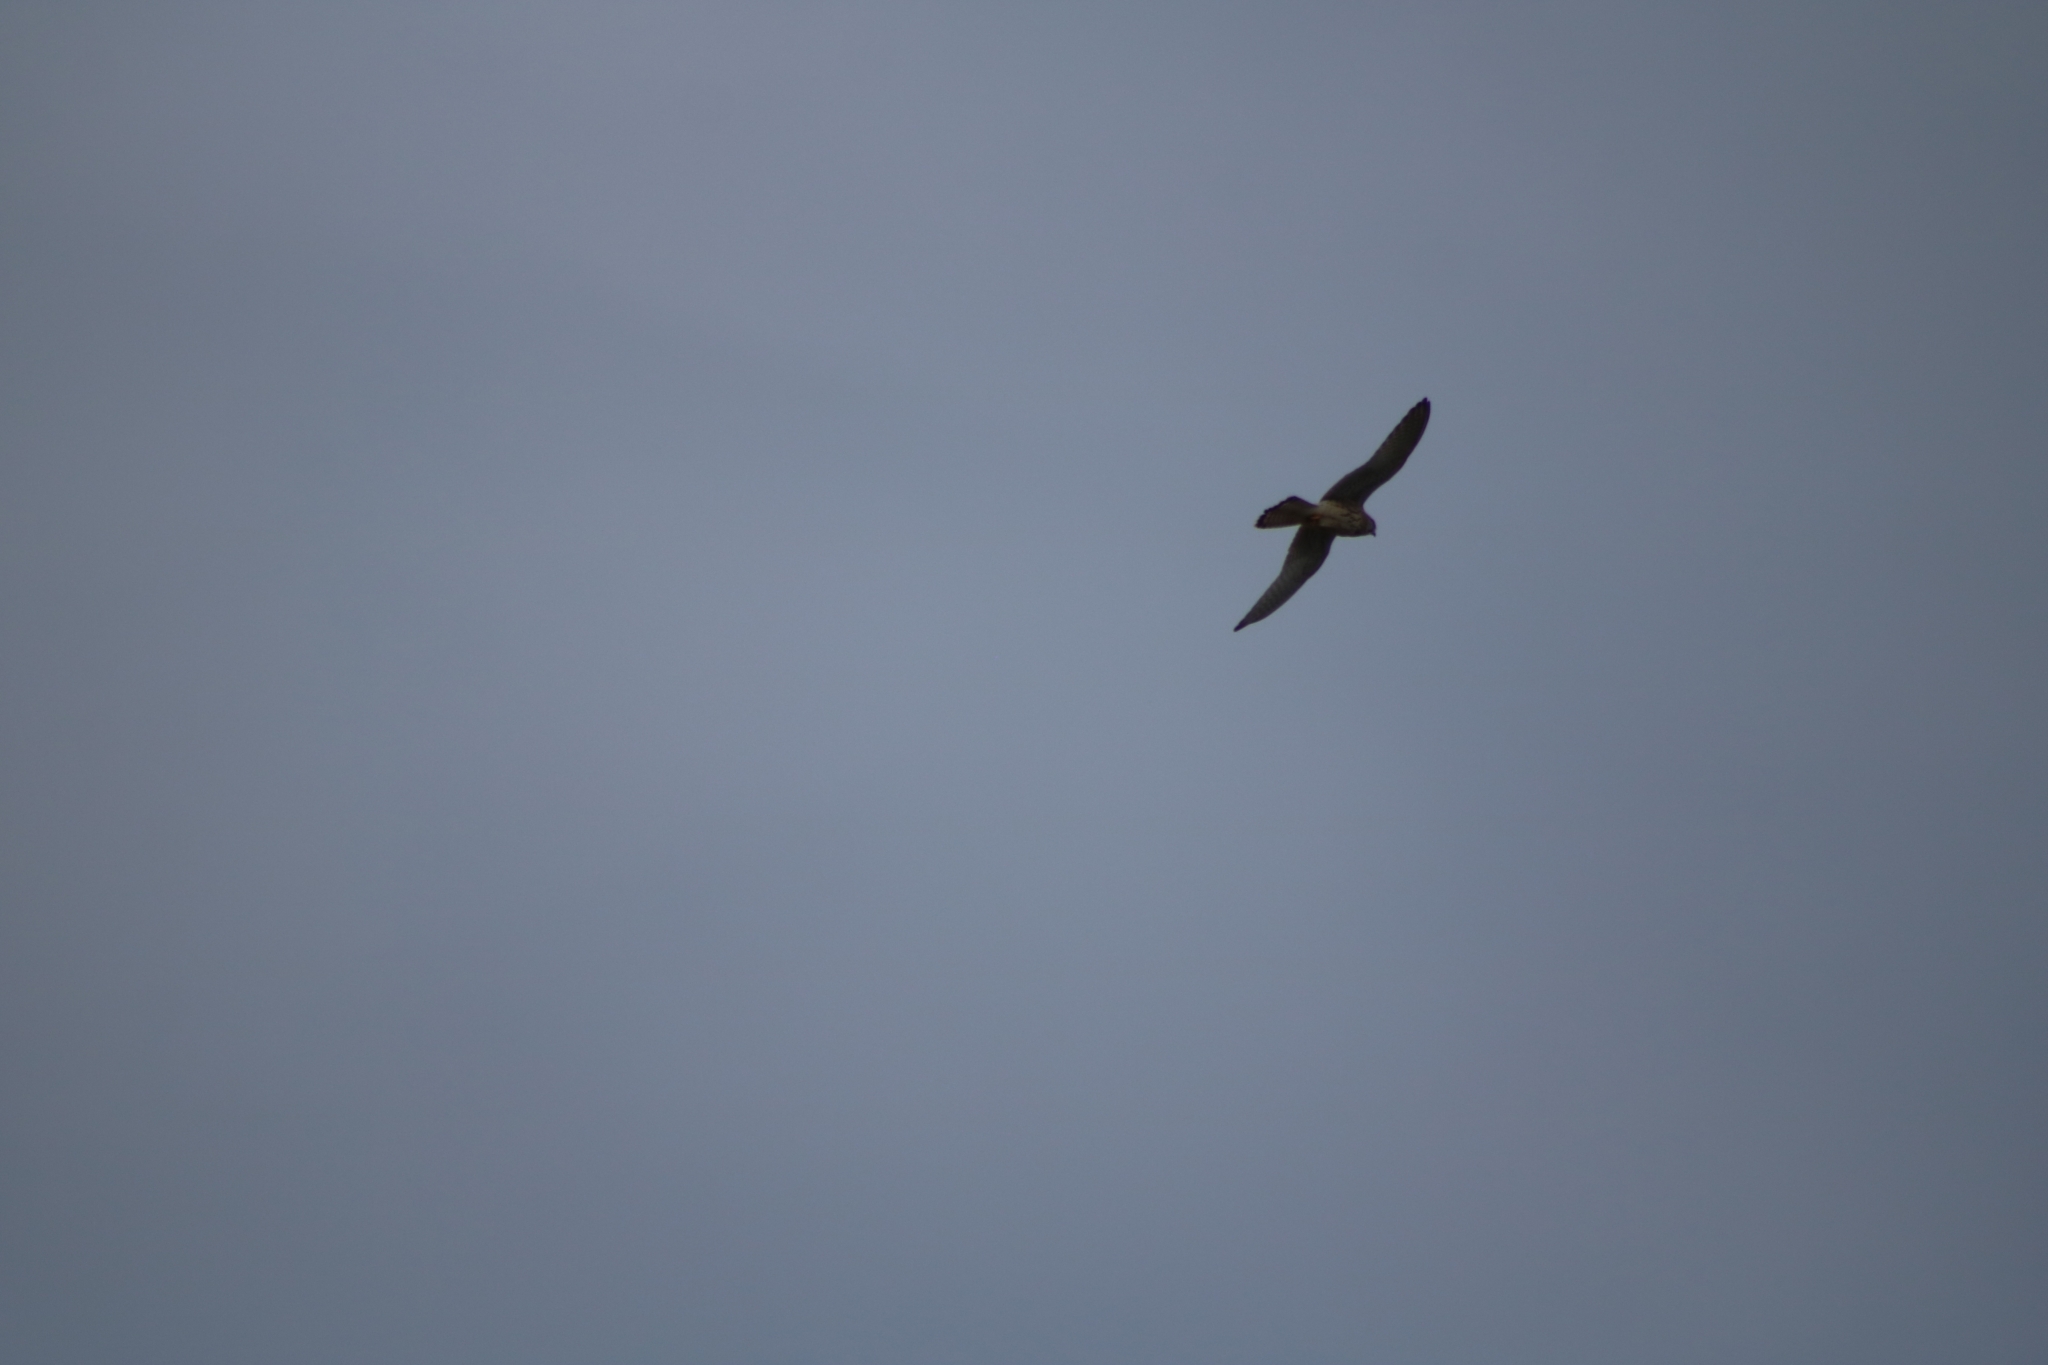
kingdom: Animalia
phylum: Chordata
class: Aves
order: Falconiformes
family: Falconidae
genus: Falco
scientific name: Falco tinnunculus
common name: Common kestrel
